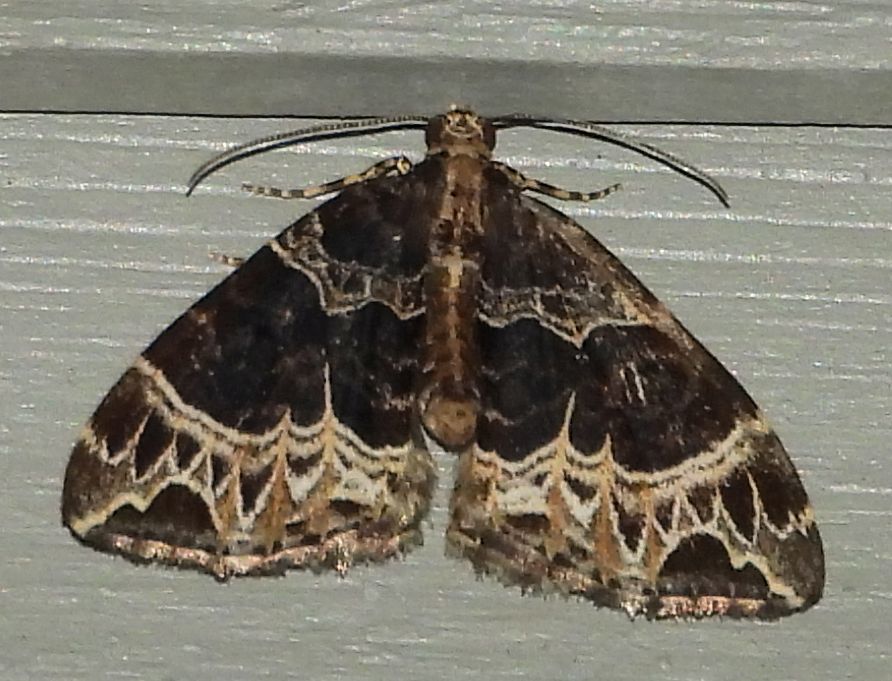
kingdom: Animalia
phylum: Arthropoda
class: Insecta
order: Lepidoptera
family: Geometridae
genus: Ecliptopera
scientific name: Ecliptopera silaceata
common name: Small phoenix
